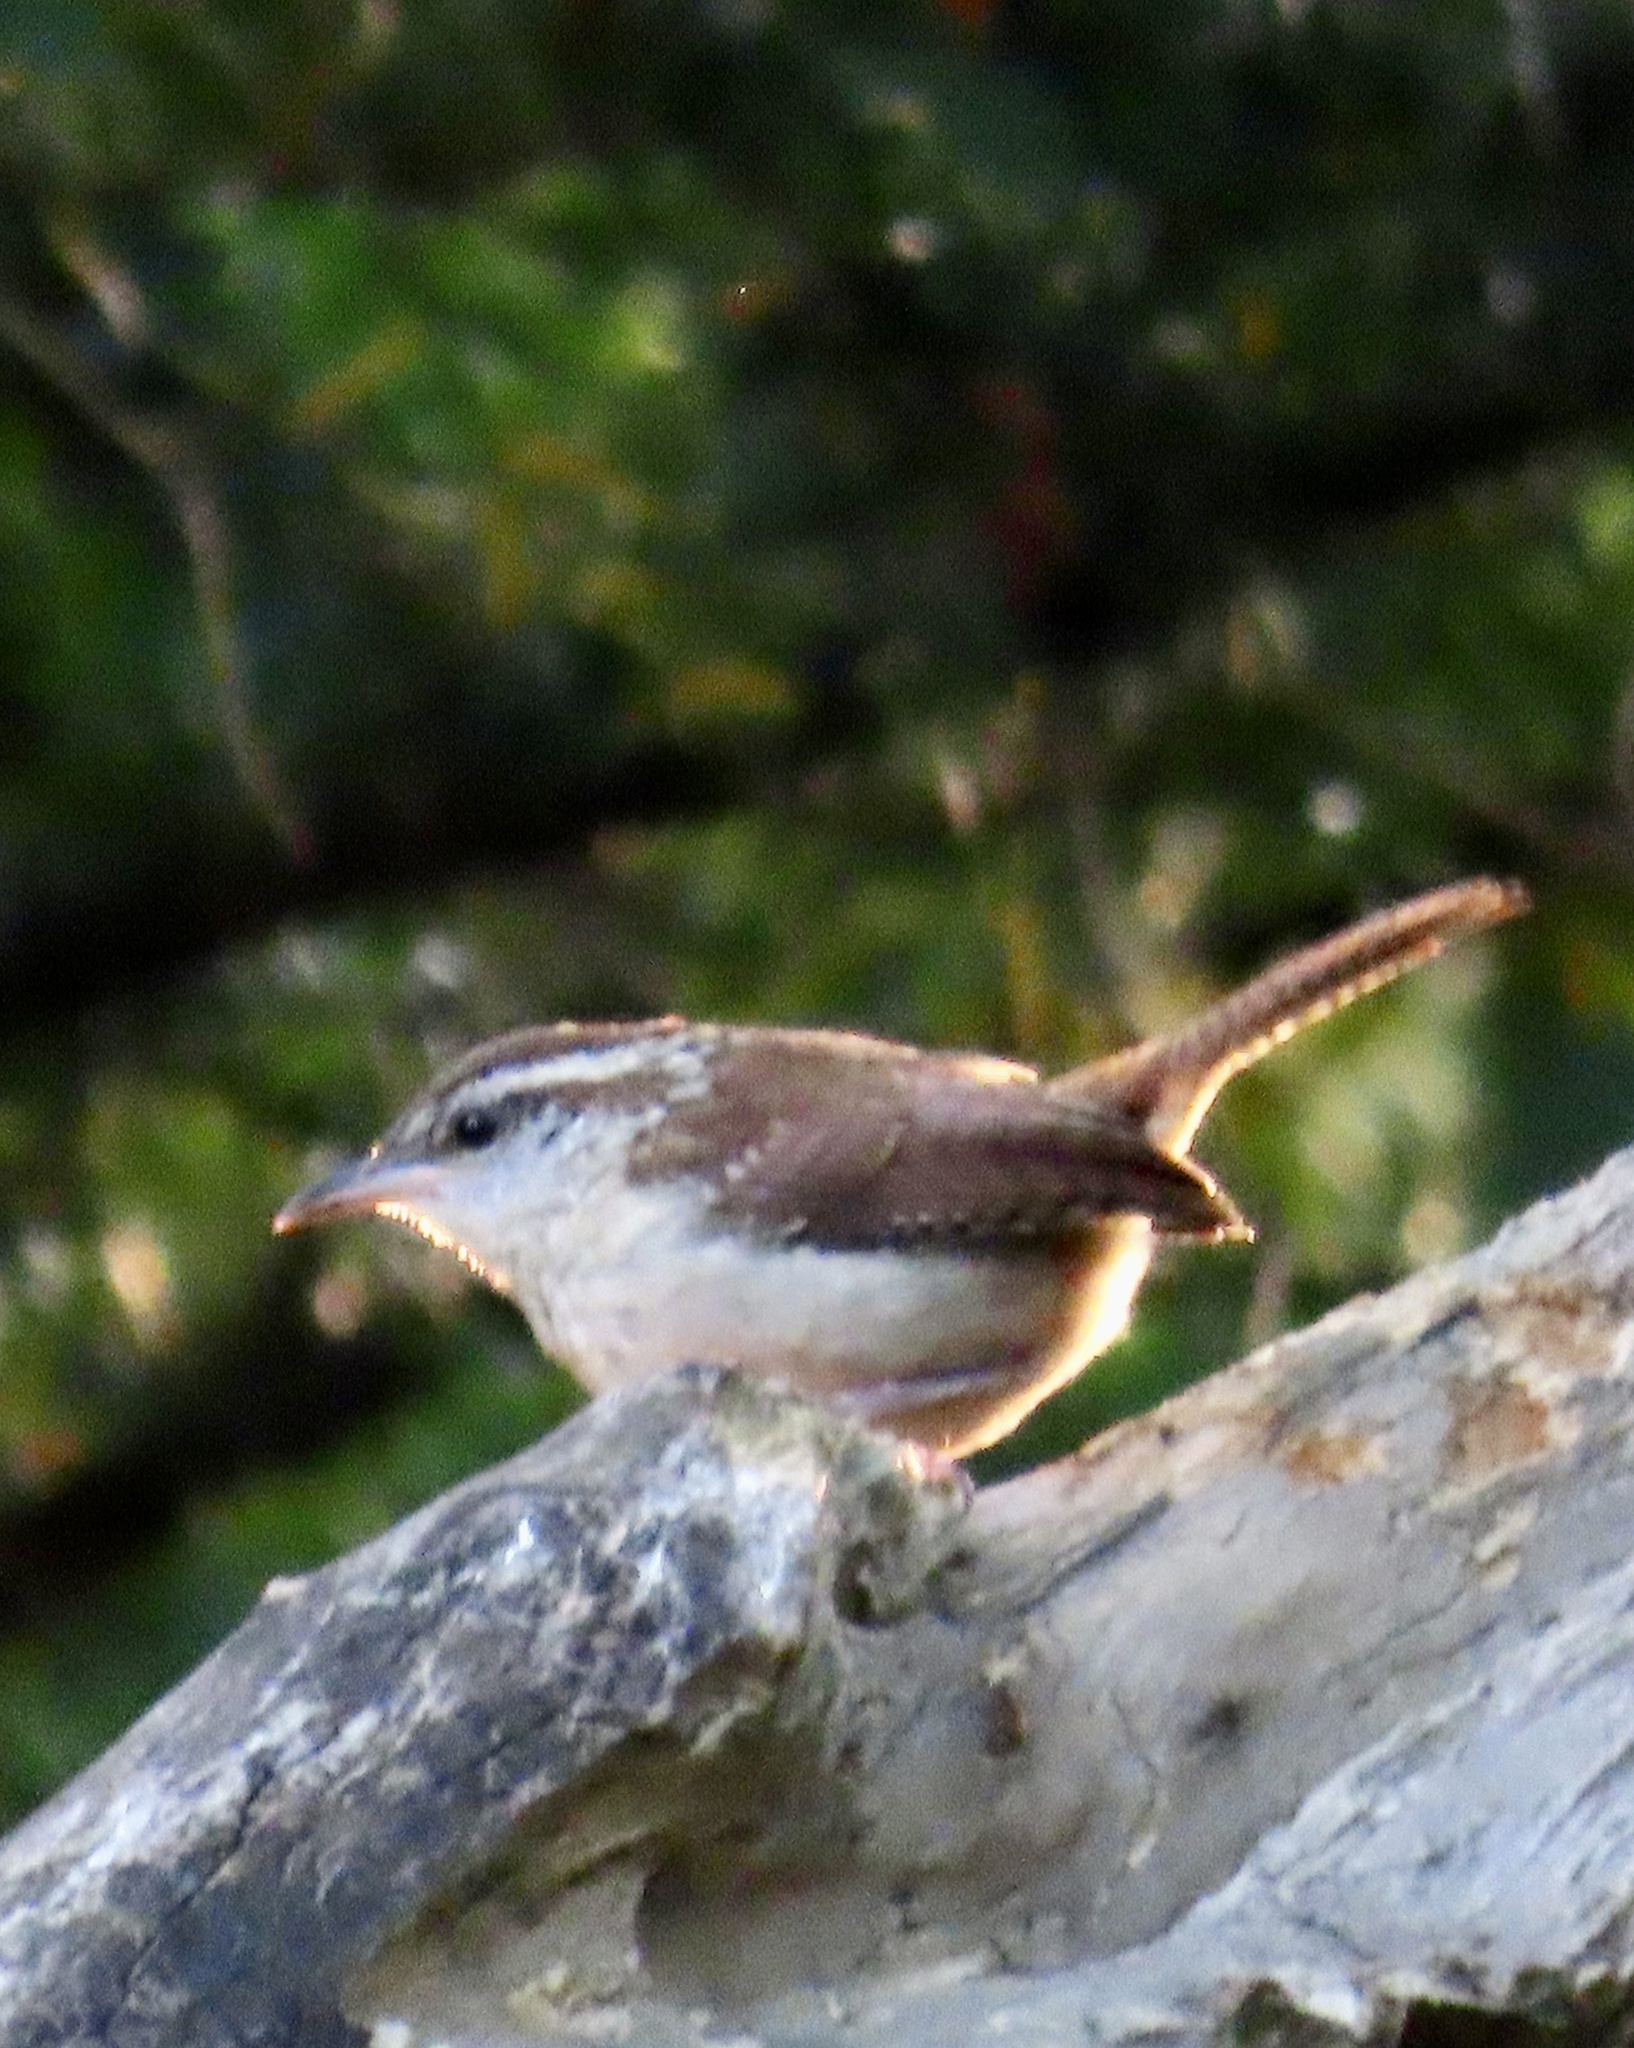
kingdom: Animalia
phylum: Chordata
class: Aves
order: Passeriformes
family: Troglodytidae
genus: Thryothorus
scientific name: Thryothorus ludovicianus
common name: Carolina wren
